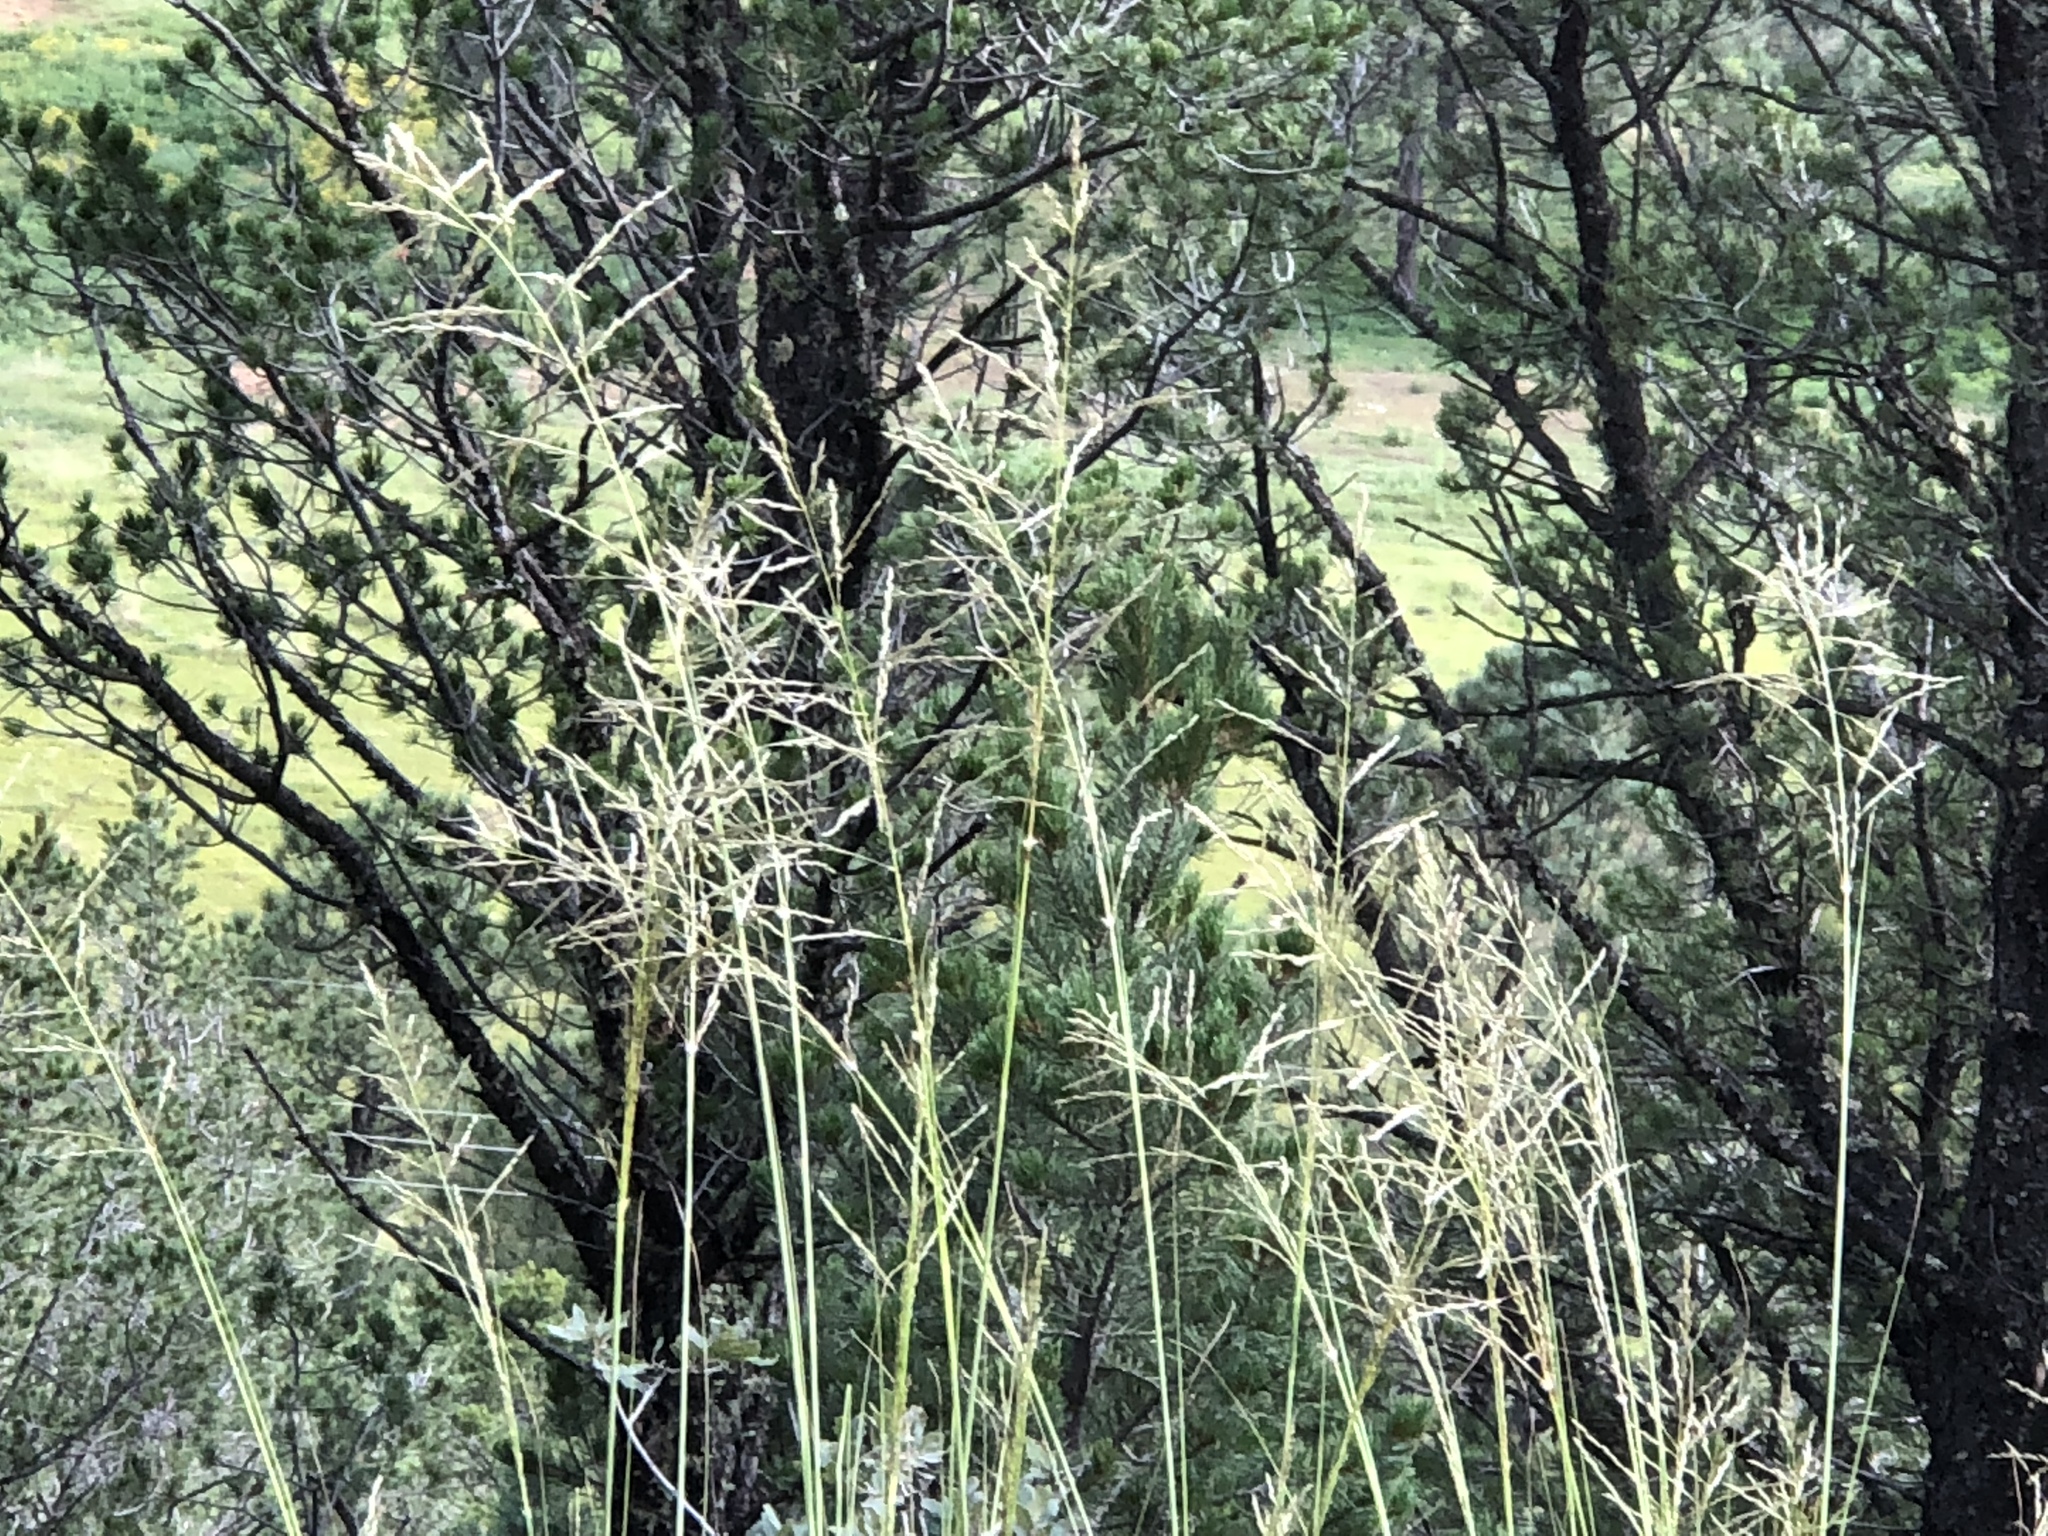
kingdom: Plantae
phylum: Tracheophyta
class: Liliopsida
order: Poales
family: Poaceae
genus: Eragrostis
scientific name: Eragrostis curvula
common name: African love-grass
